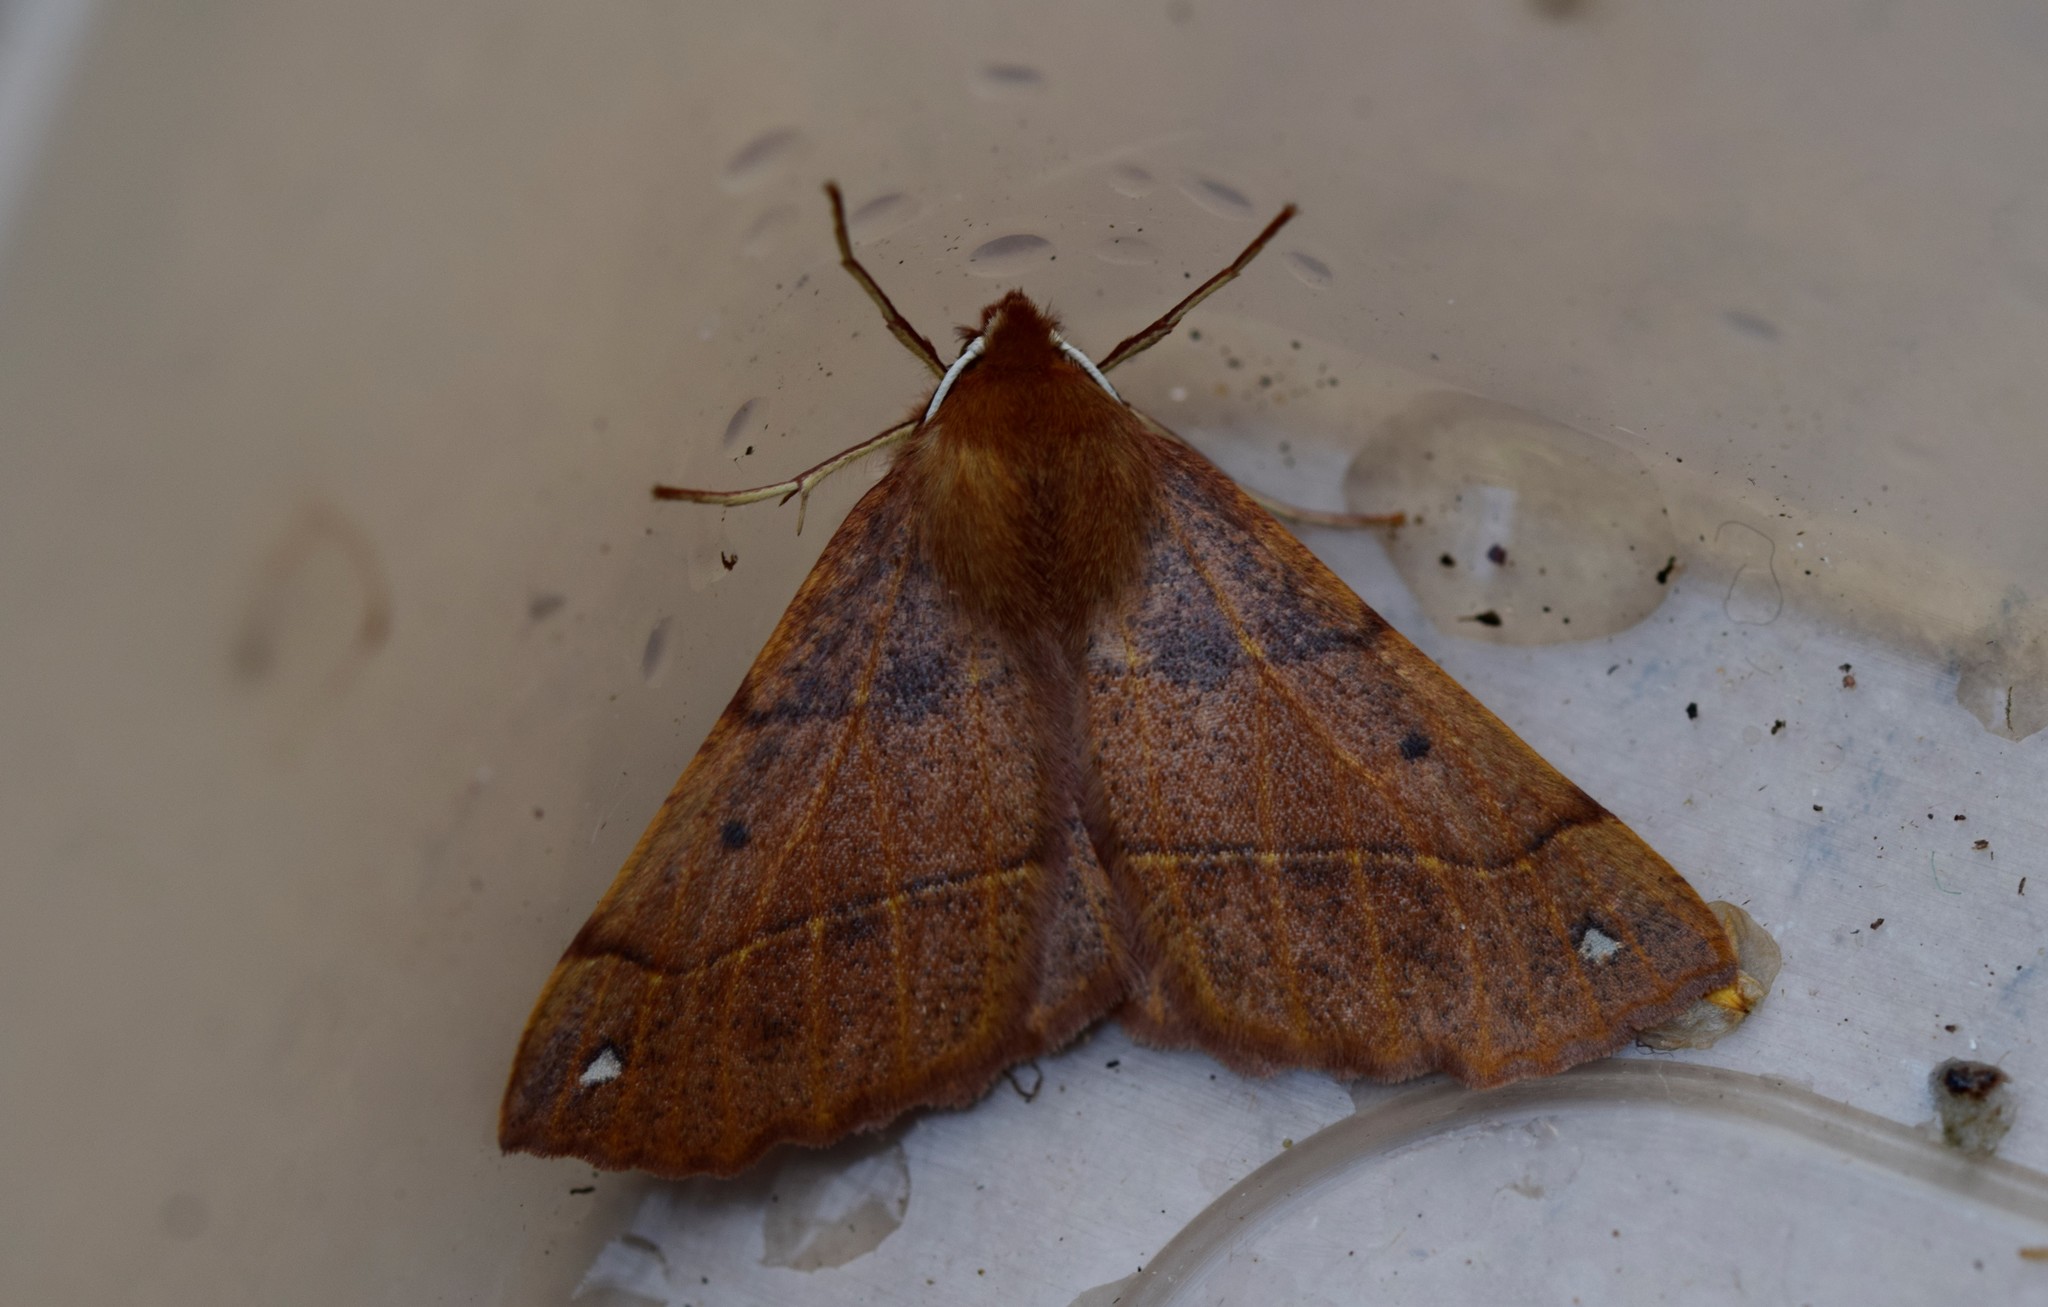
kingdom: Animalia
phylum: Arthropoda
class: Insecta
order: Lepidoptera
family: Geometridae
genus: Colotois
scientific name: Colotois pennaria
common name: Feathered thorn
